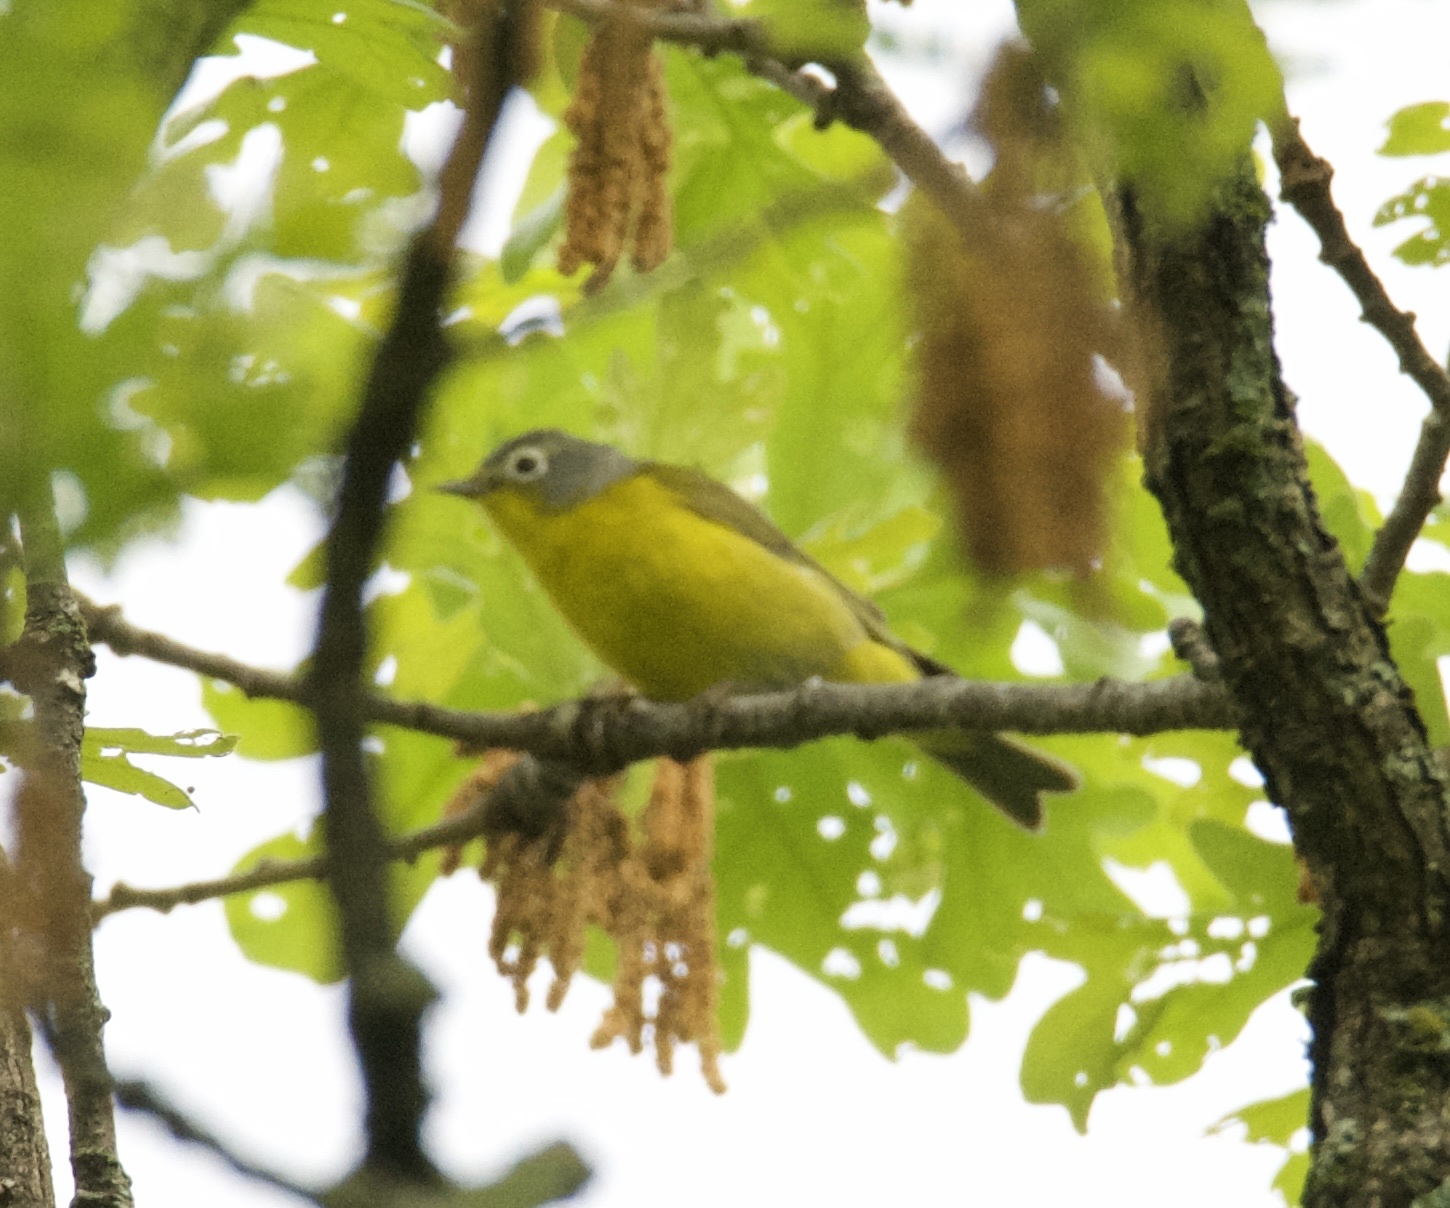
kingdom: Animalia
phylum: Chordata
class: Aves
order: Passeriformes
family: Parulidae
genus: Leiothlypis
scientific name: Leiothlypis ruficapilla
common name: Nashville warbler
